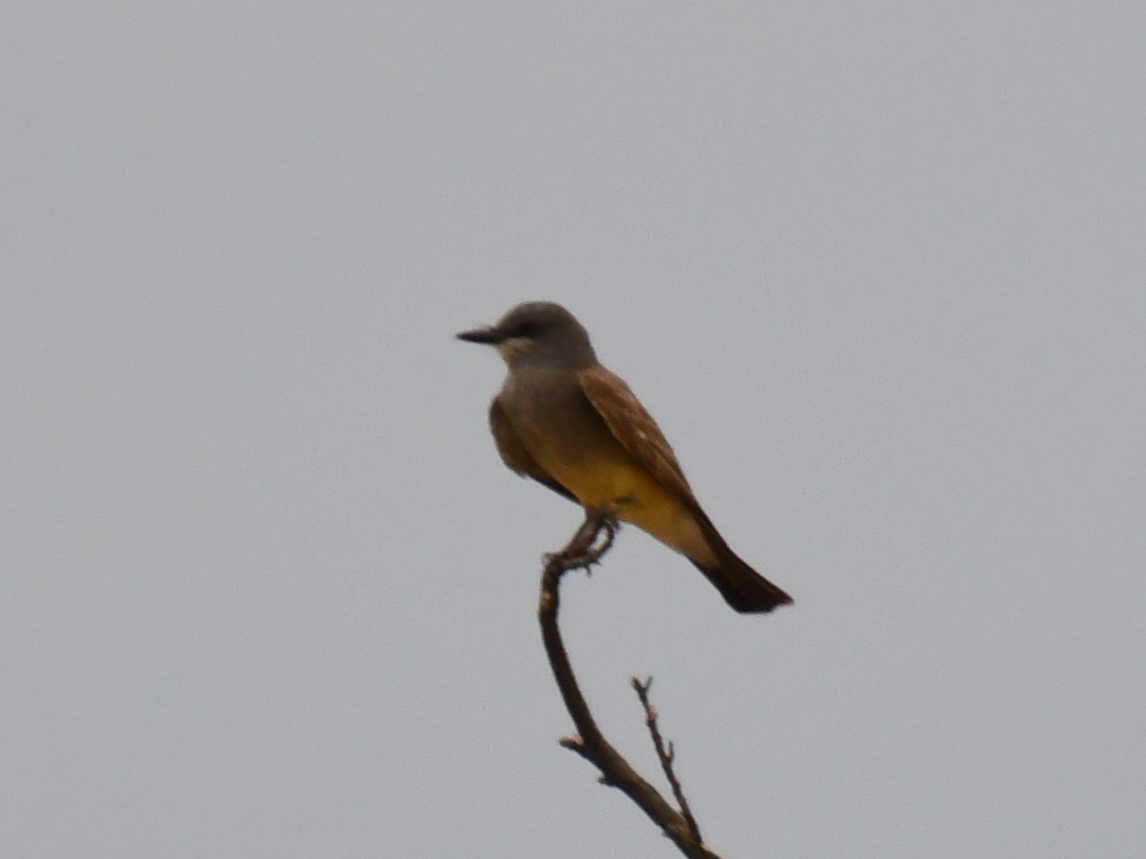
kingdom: Animalia
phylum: Chordata
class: Aves
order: Passeriformes
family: Tyrannidae
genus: Tyrannus
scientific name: Tyrannus vociferans
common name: Cassin's kingbird
